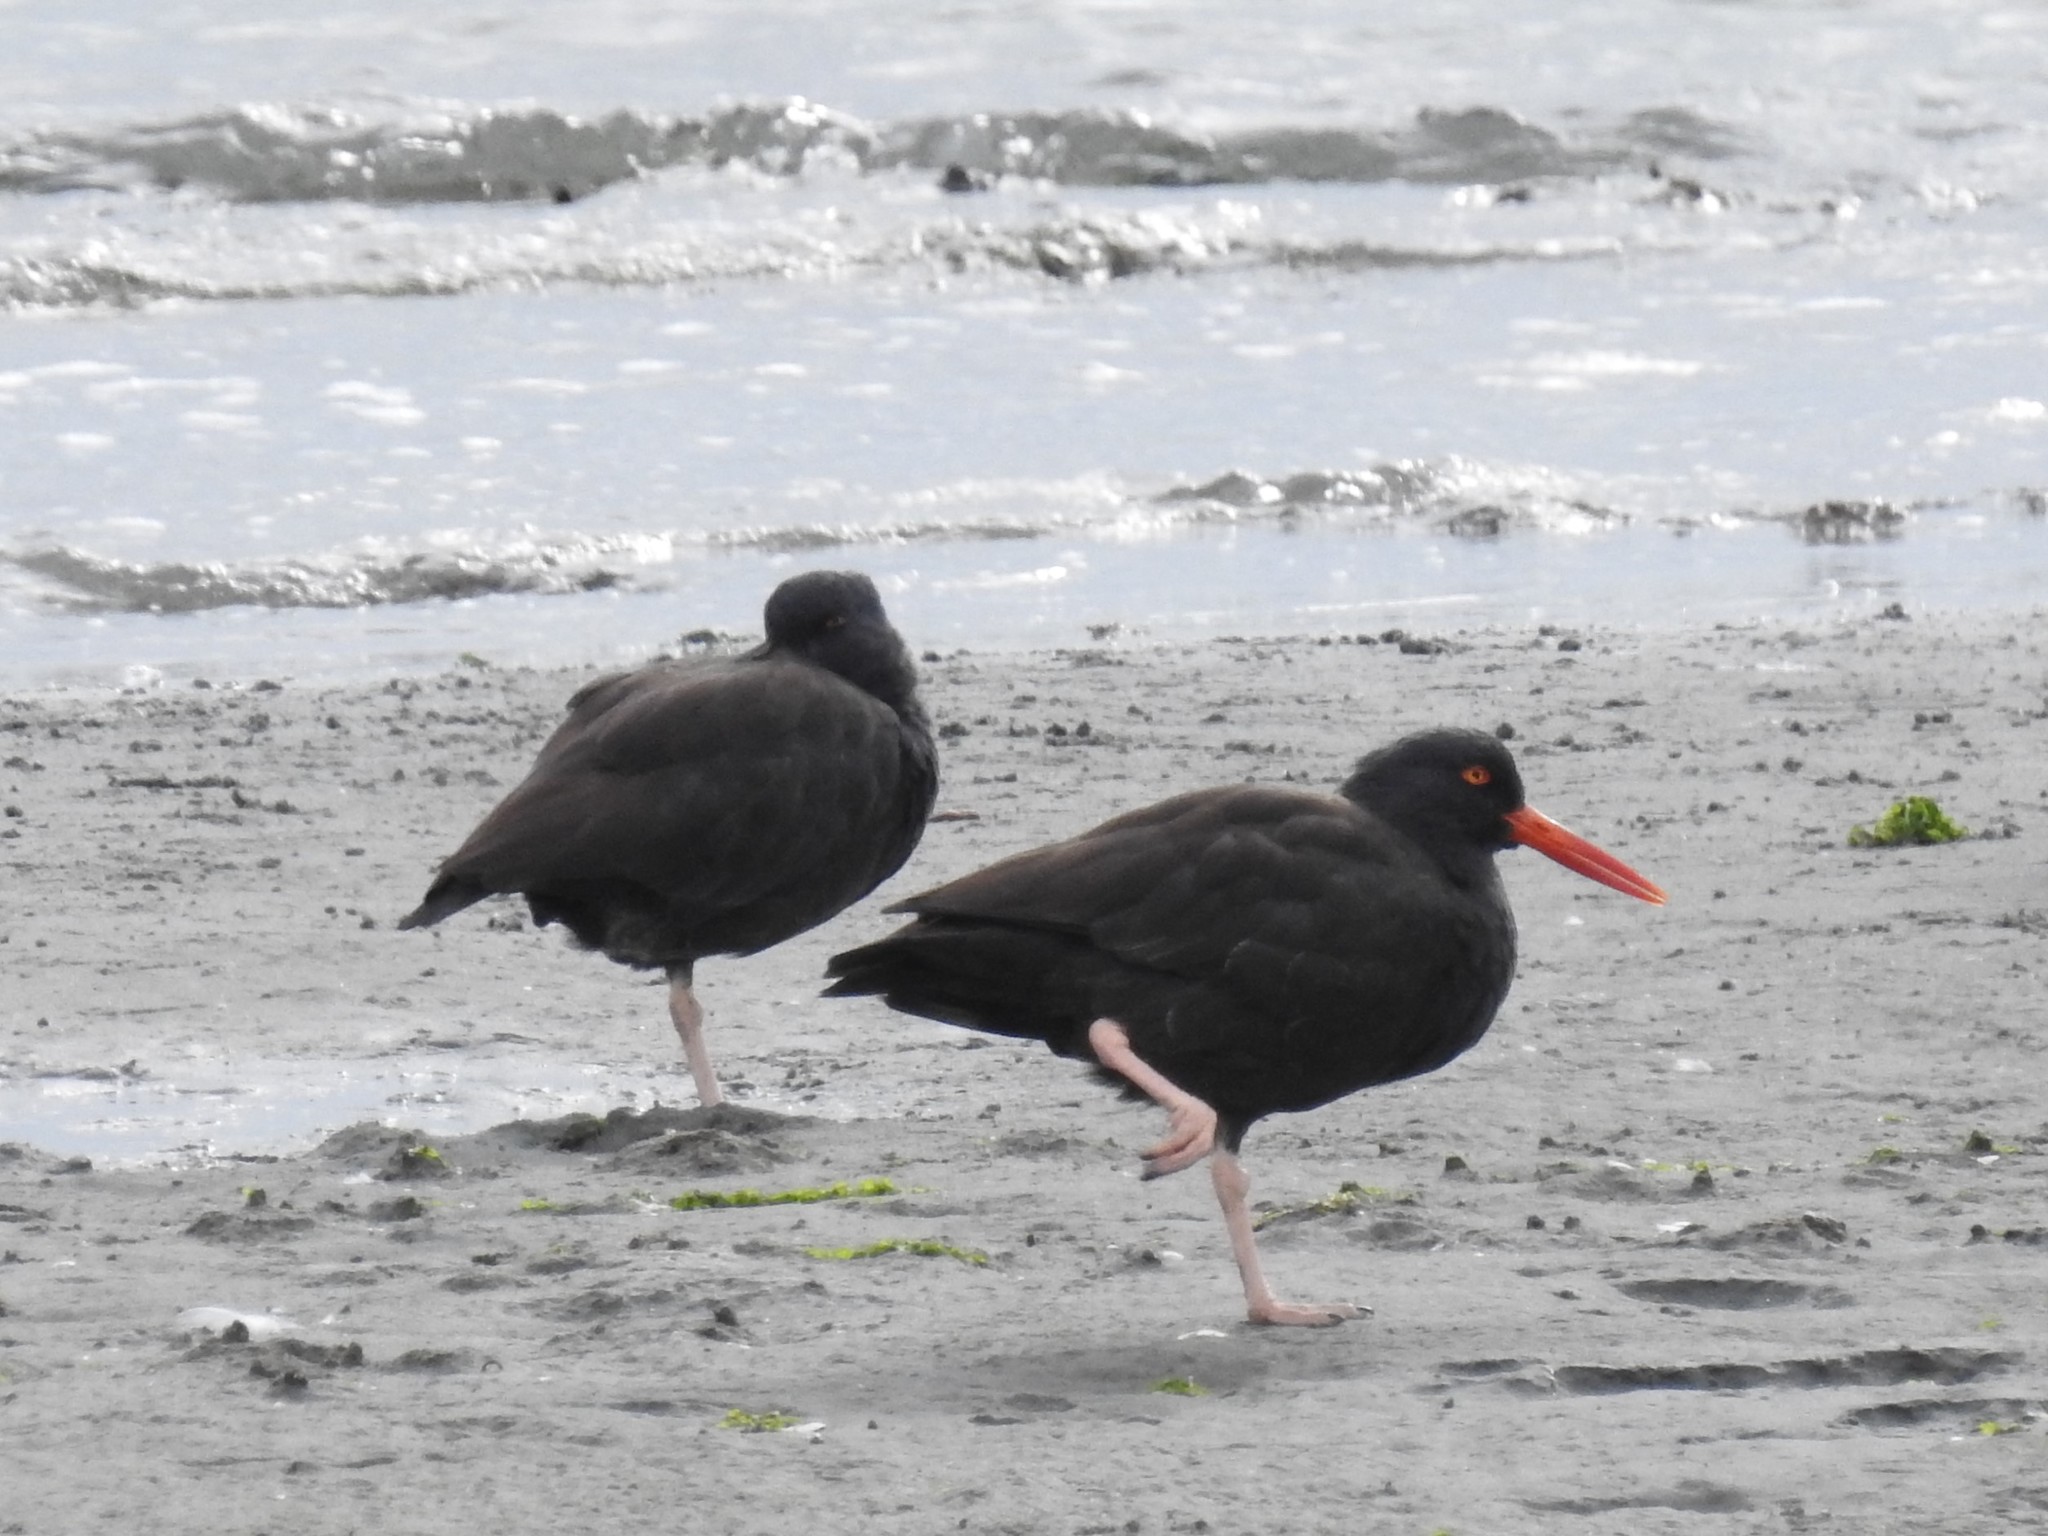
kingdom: Animalia
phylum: Chordata
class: Aves
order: Charadriiformes
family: Haematopodidae
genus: Haematopus
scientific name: Haematopus bachmani
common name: Black oystercatcher
